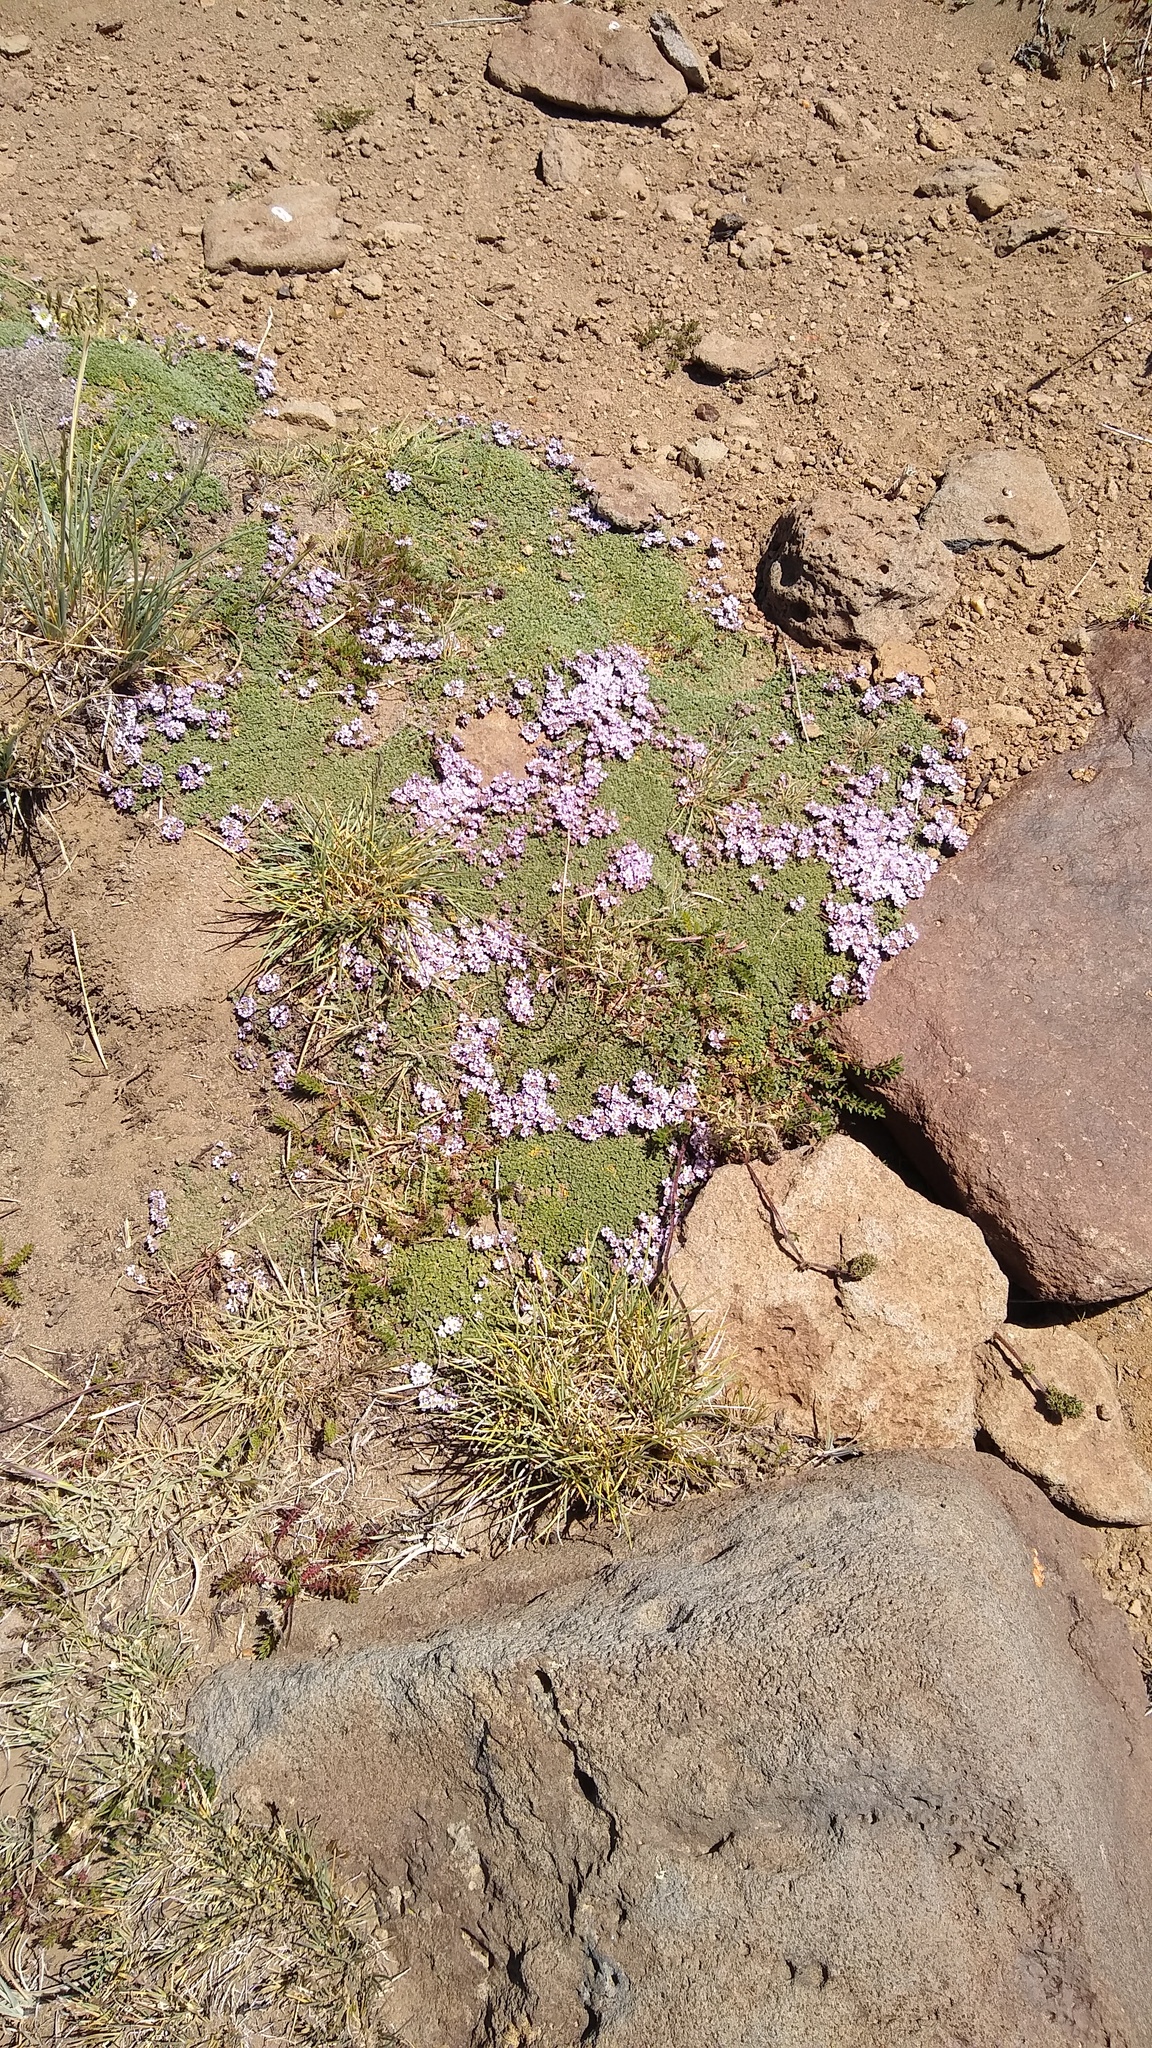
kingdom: Plantae
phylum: Tracheophyta
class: Magnoliopsida
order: Lamiales
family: Verbenaceae
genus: Junellia
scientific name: Junellia micrantha
